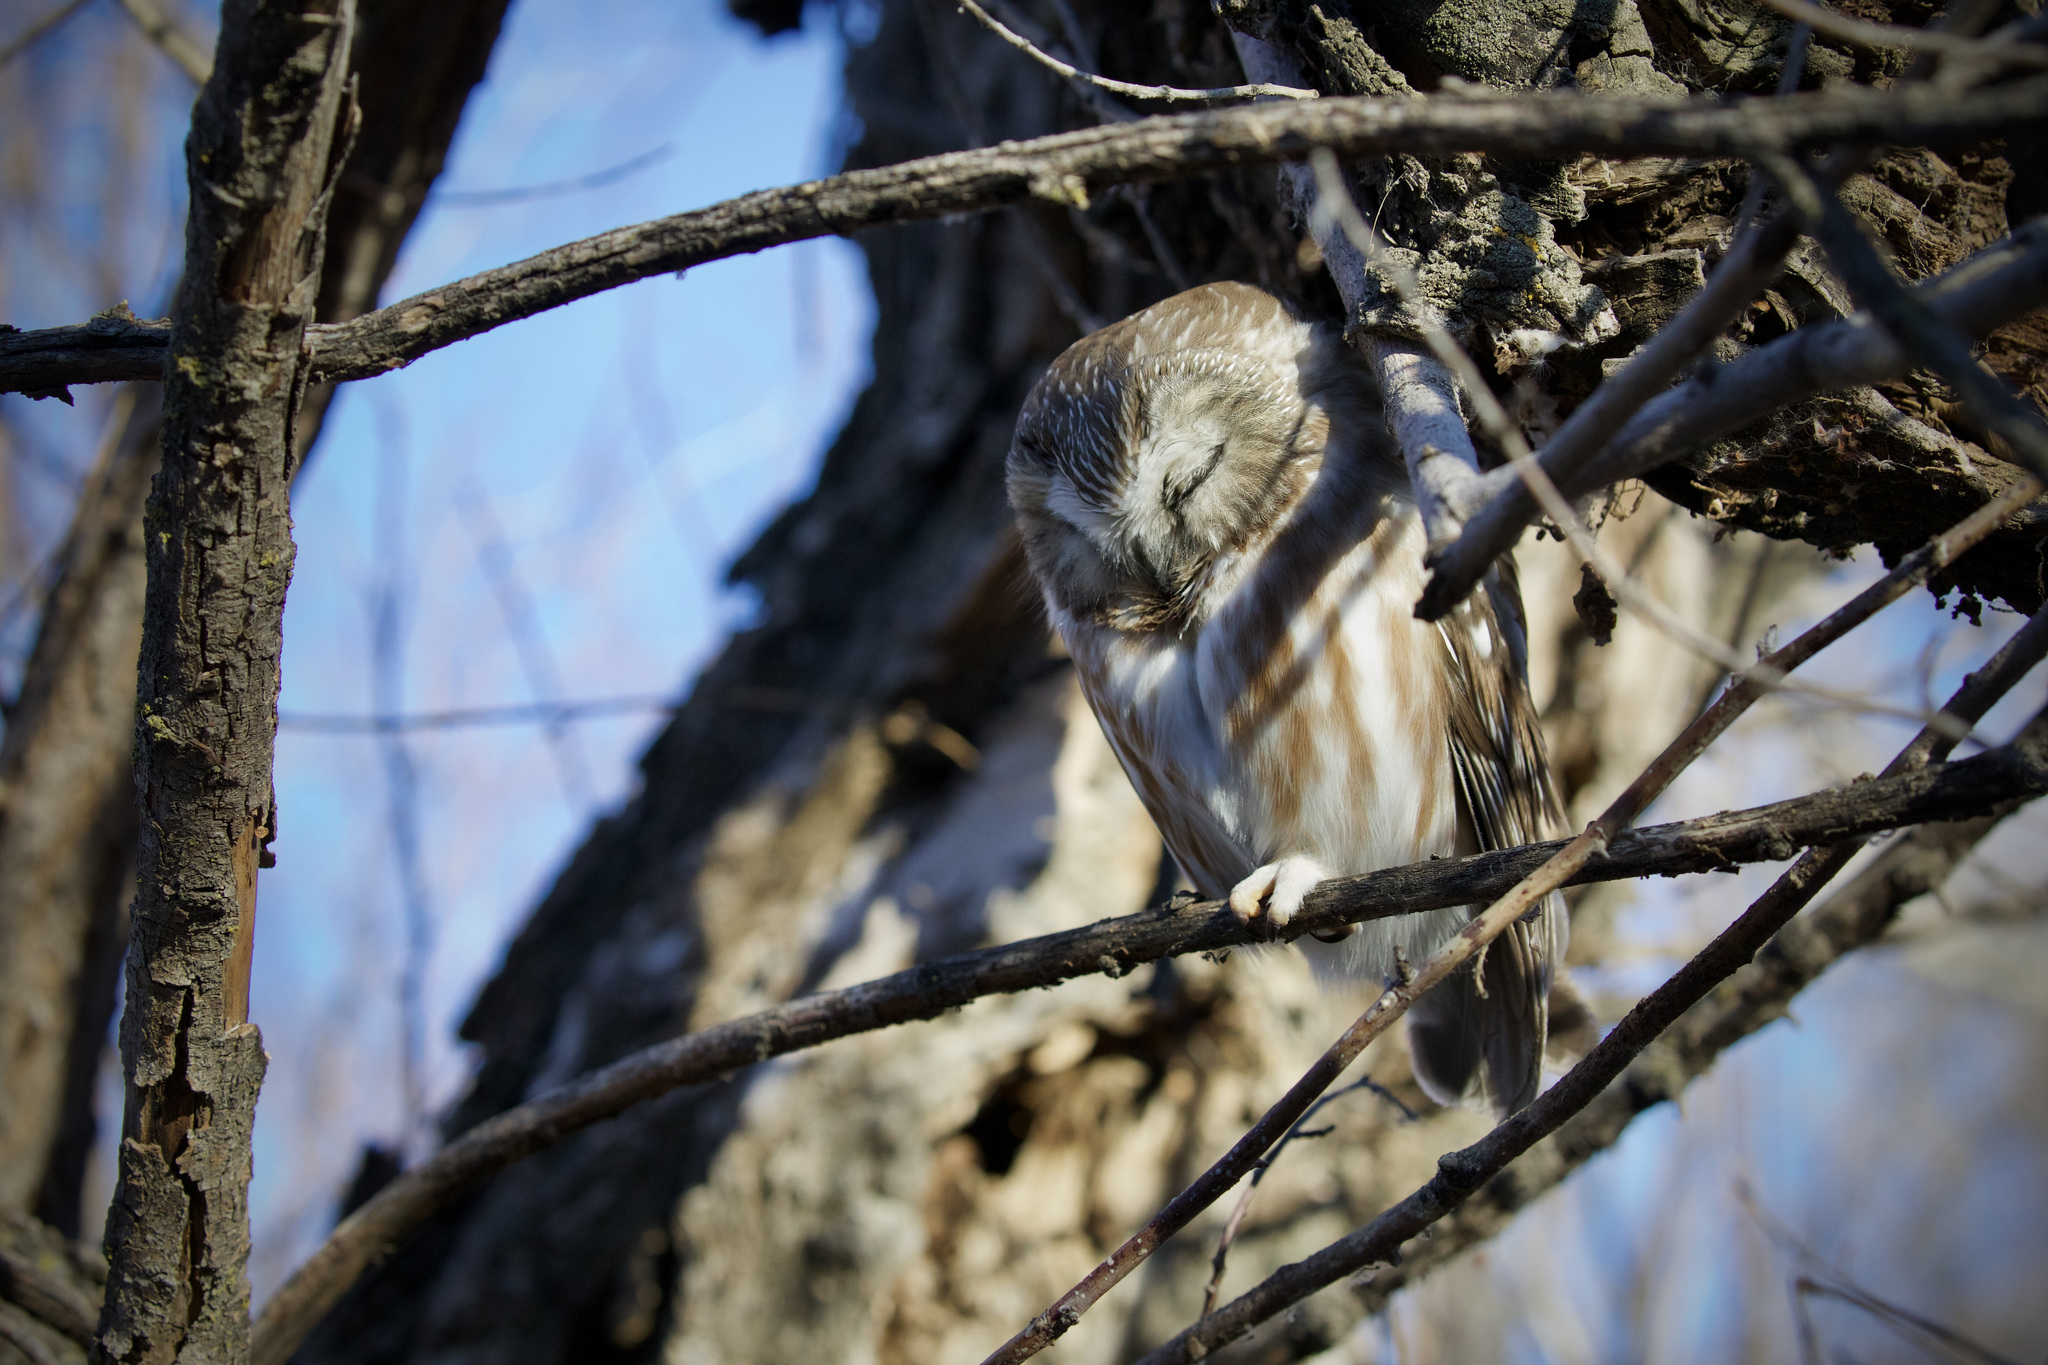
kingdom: Animalia
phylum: Chordata
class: Aves
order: Strigiformes
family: Strigidae
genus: Aegolius
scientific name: Aegolius acadicus
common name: Northern saw-whet owl
